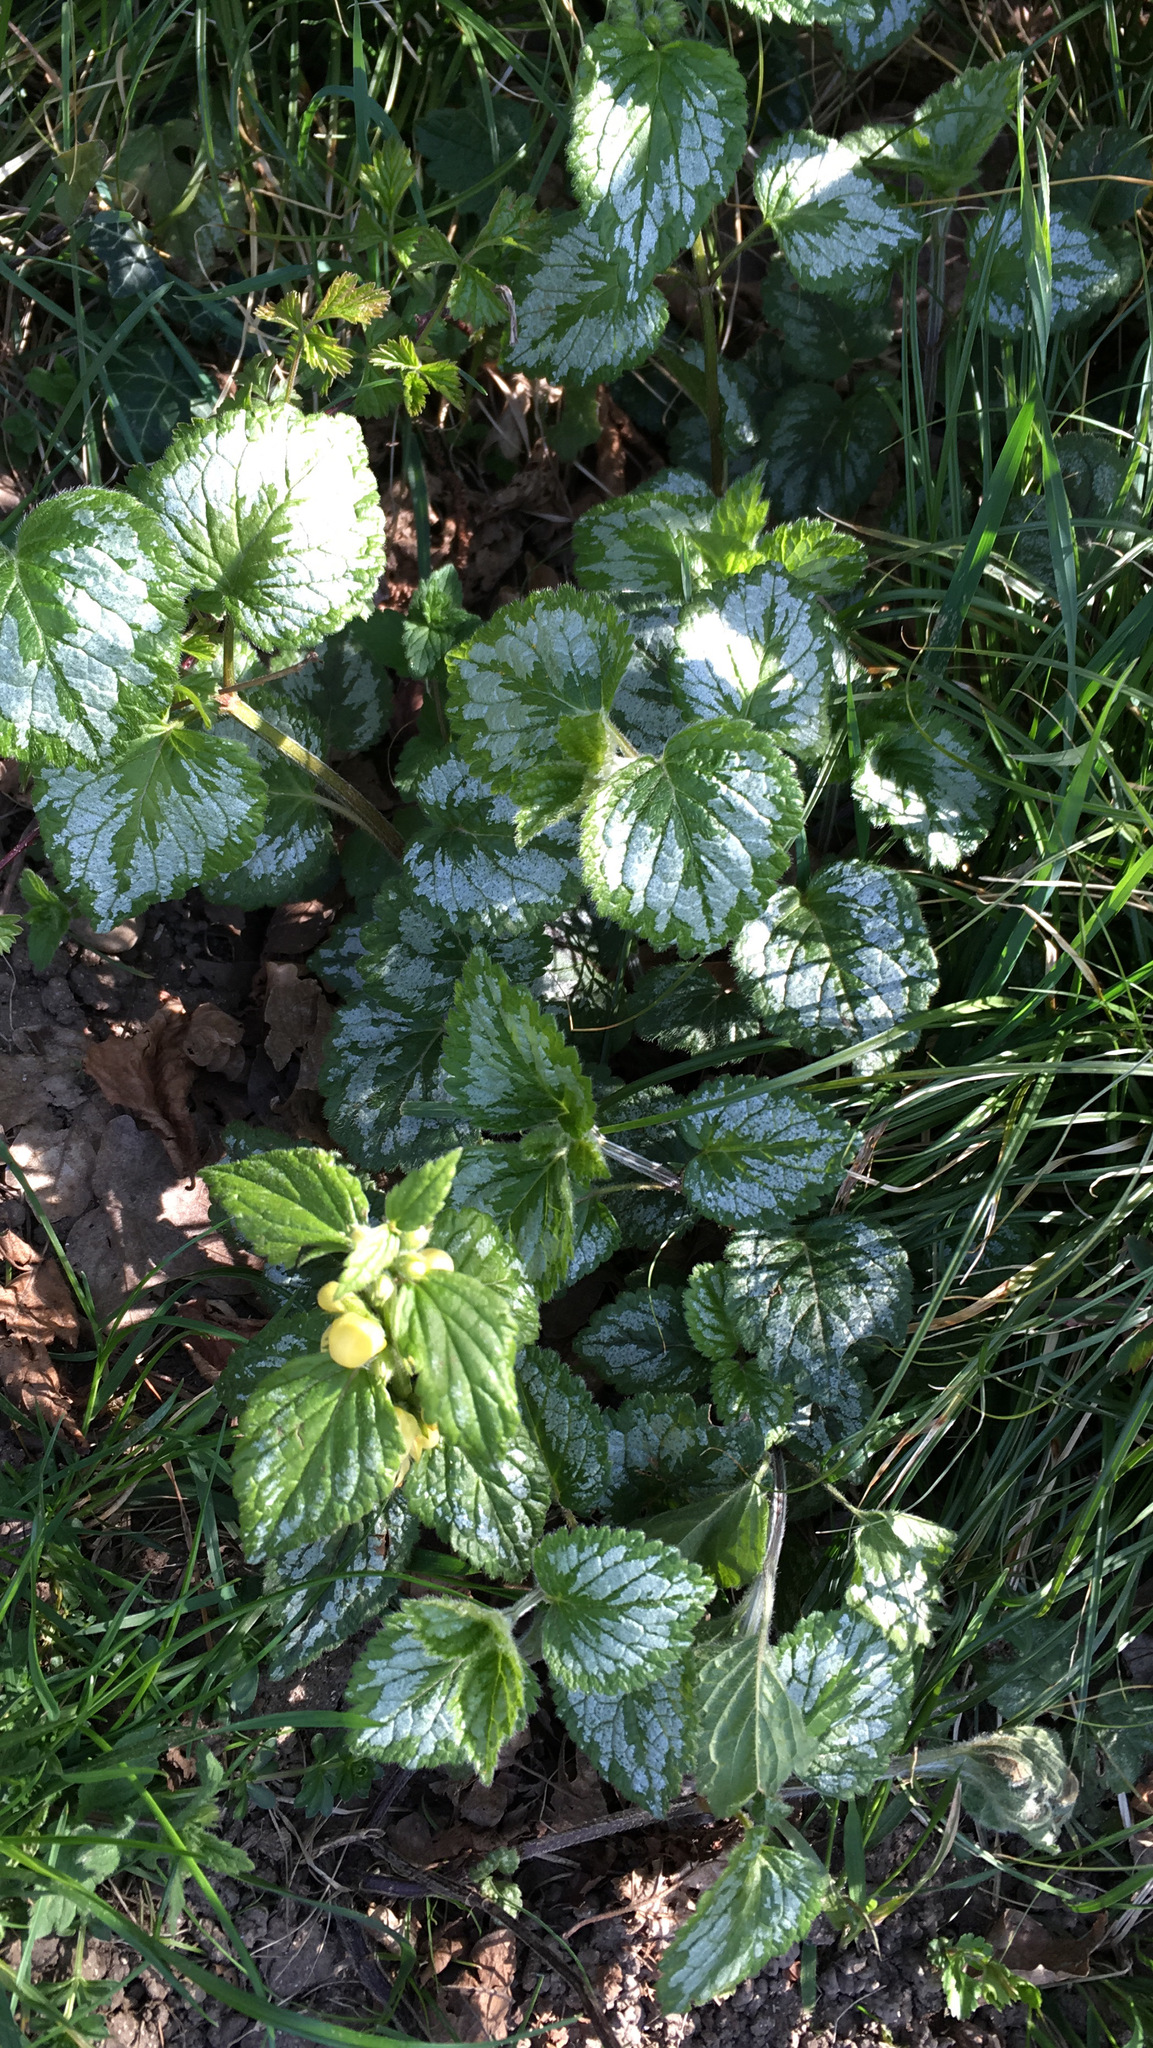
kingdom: Plantae
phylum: Tracheophyta
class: Magnoliopsida
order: Lamiales
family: Lamiaceae
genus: Lamium
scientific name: Lamium galeobdolon
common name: Yellow archangel
